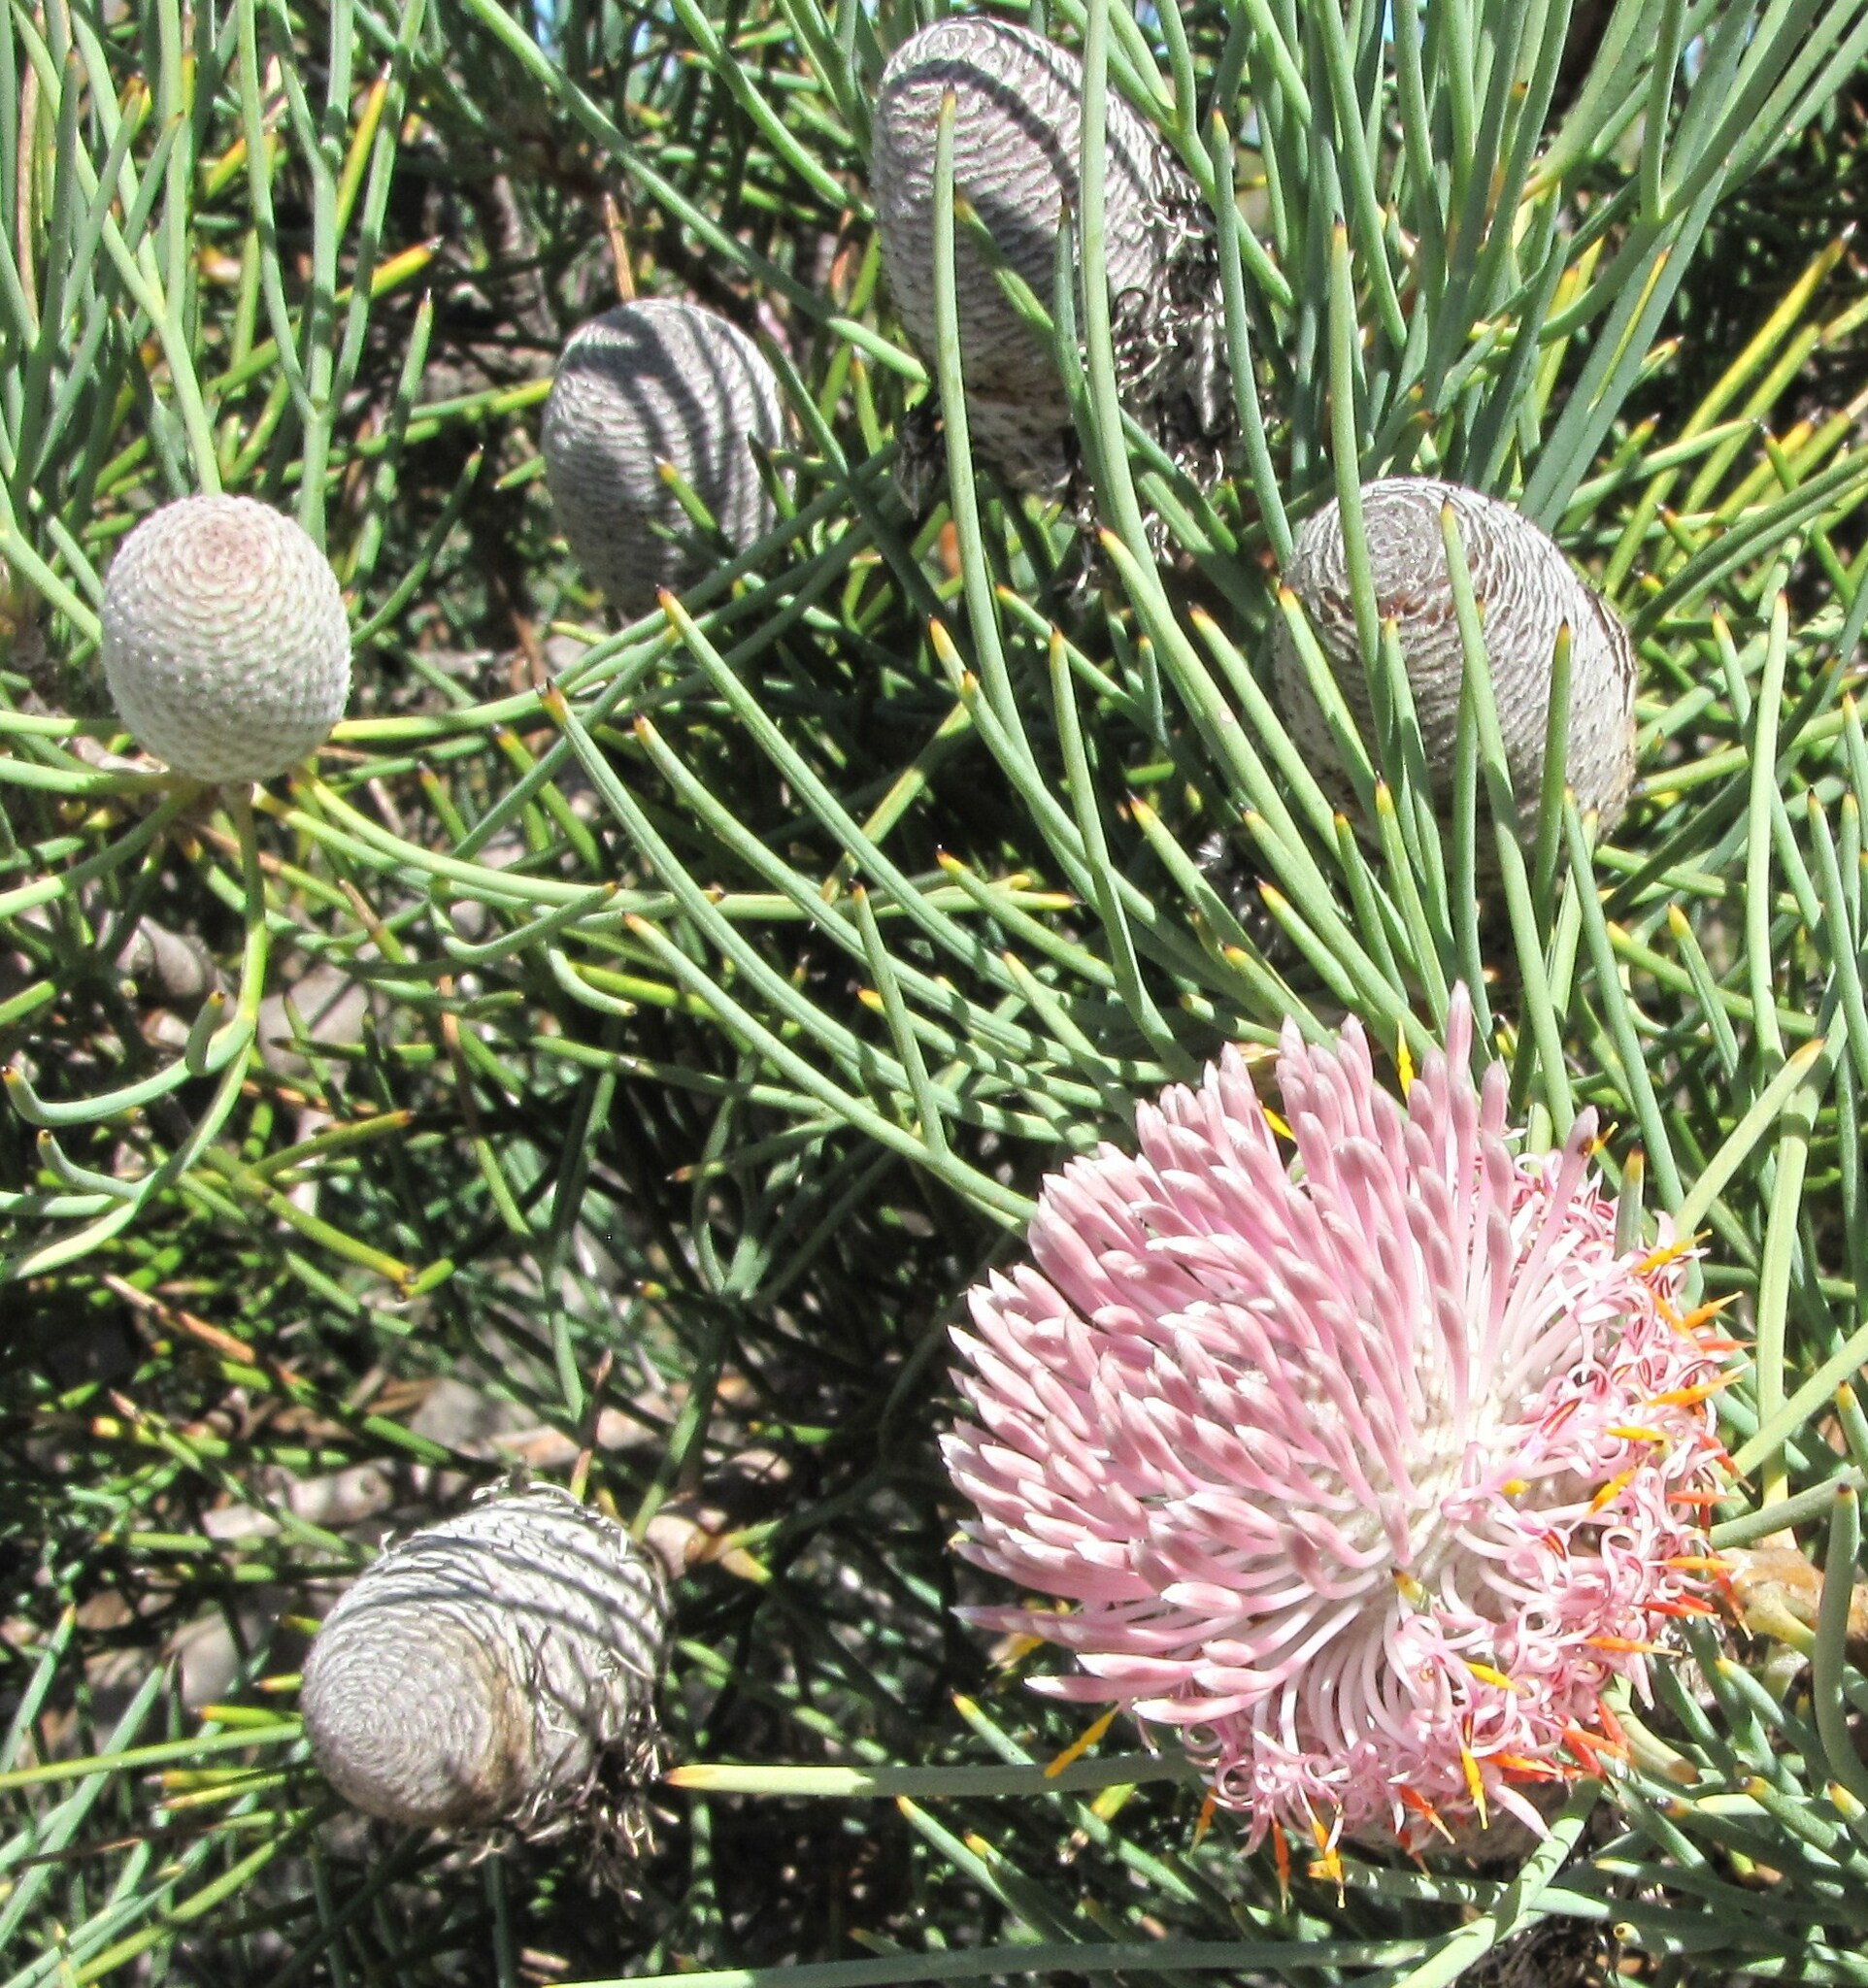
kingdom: Plantae
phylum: Tracheophyta
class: Magnoliopsida
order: Proteales
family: Proteaceae
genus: Isopogon
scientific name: Isopogon divergens
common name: Spreading-coneflower
